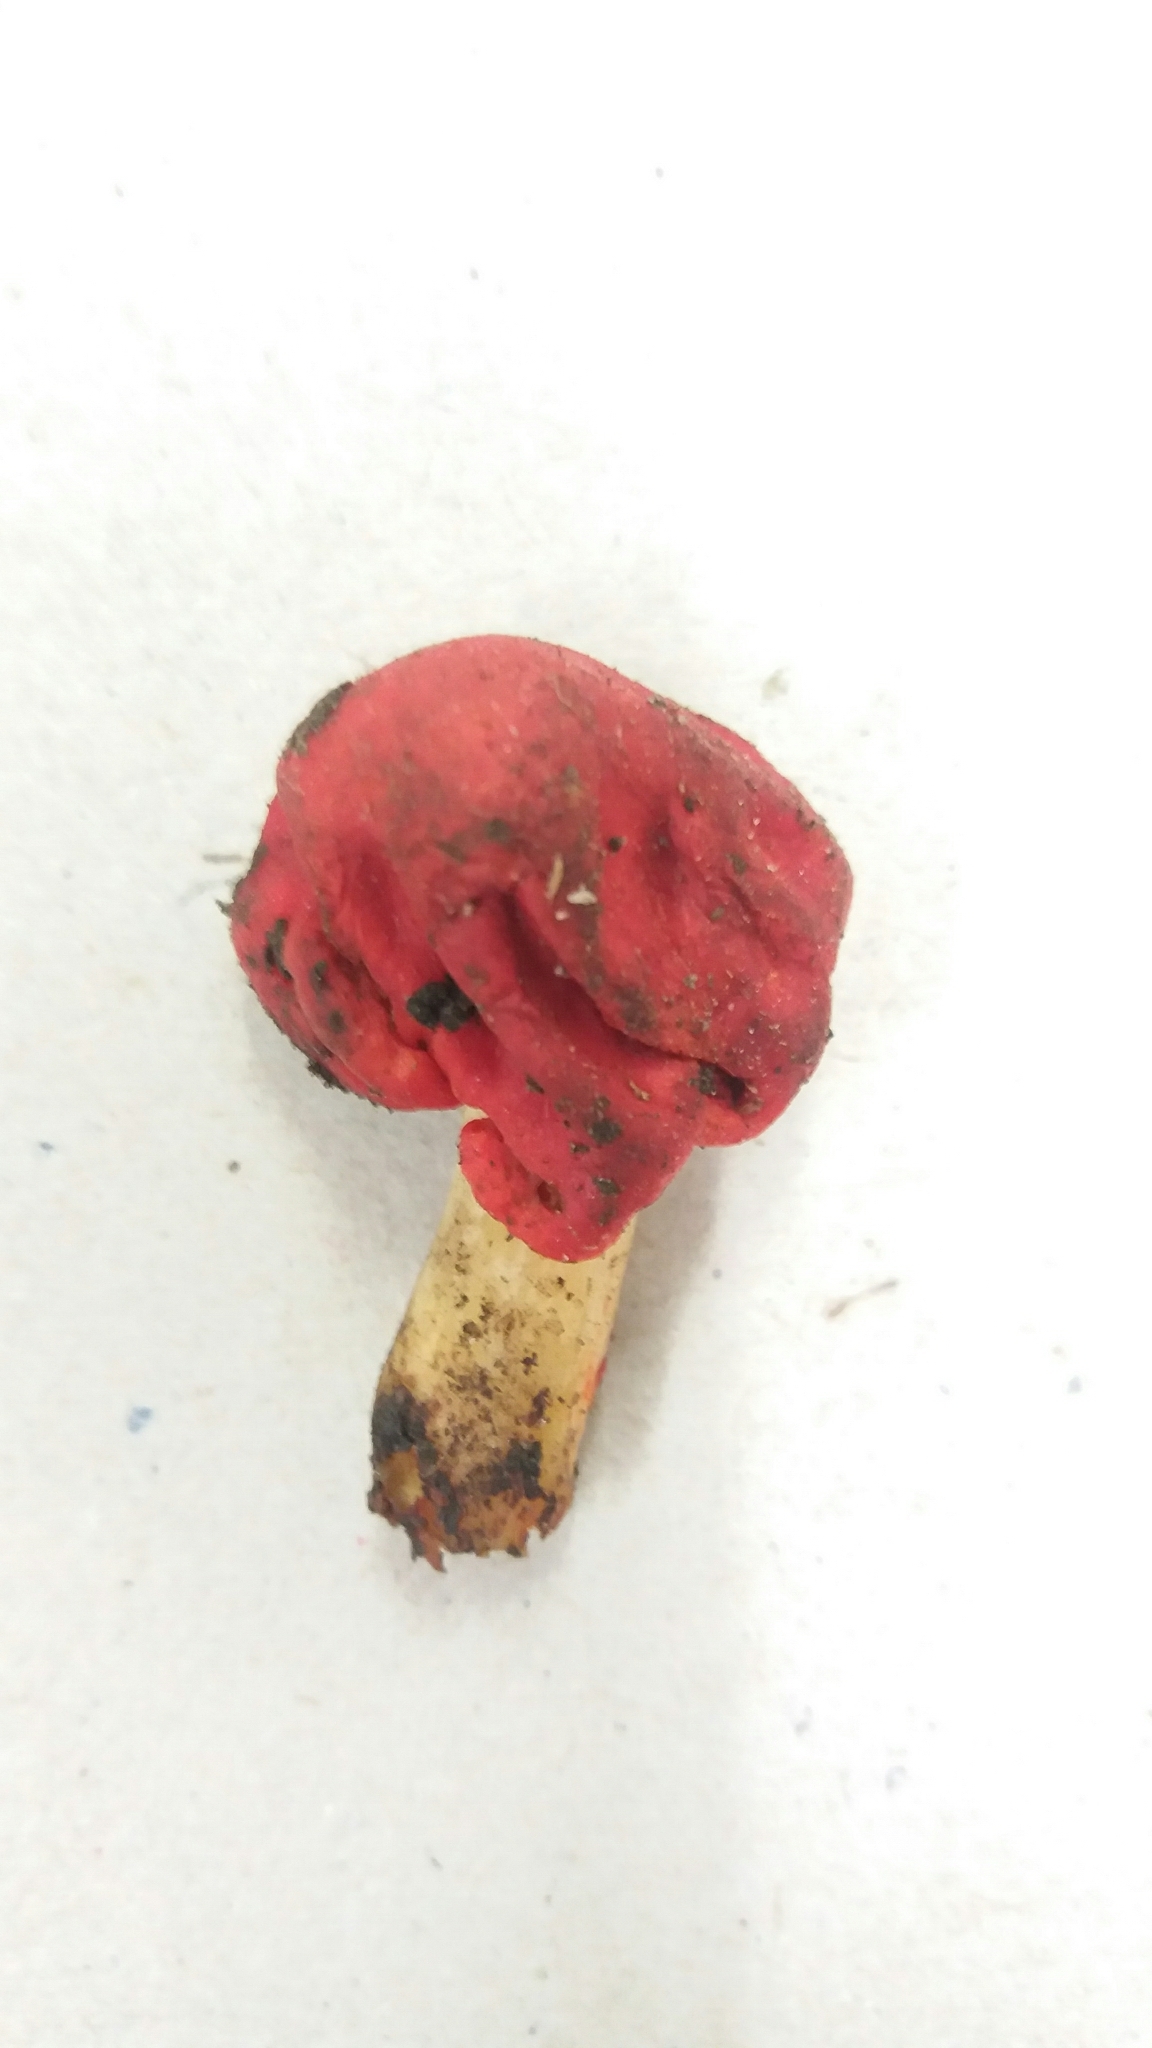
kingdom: Fungi
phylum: Basidiomycota
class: Agaricomycetes
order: Agaricales
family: Strophariaceae
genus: Leratiomyces
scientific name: Leratiomyces erythrocephalus
